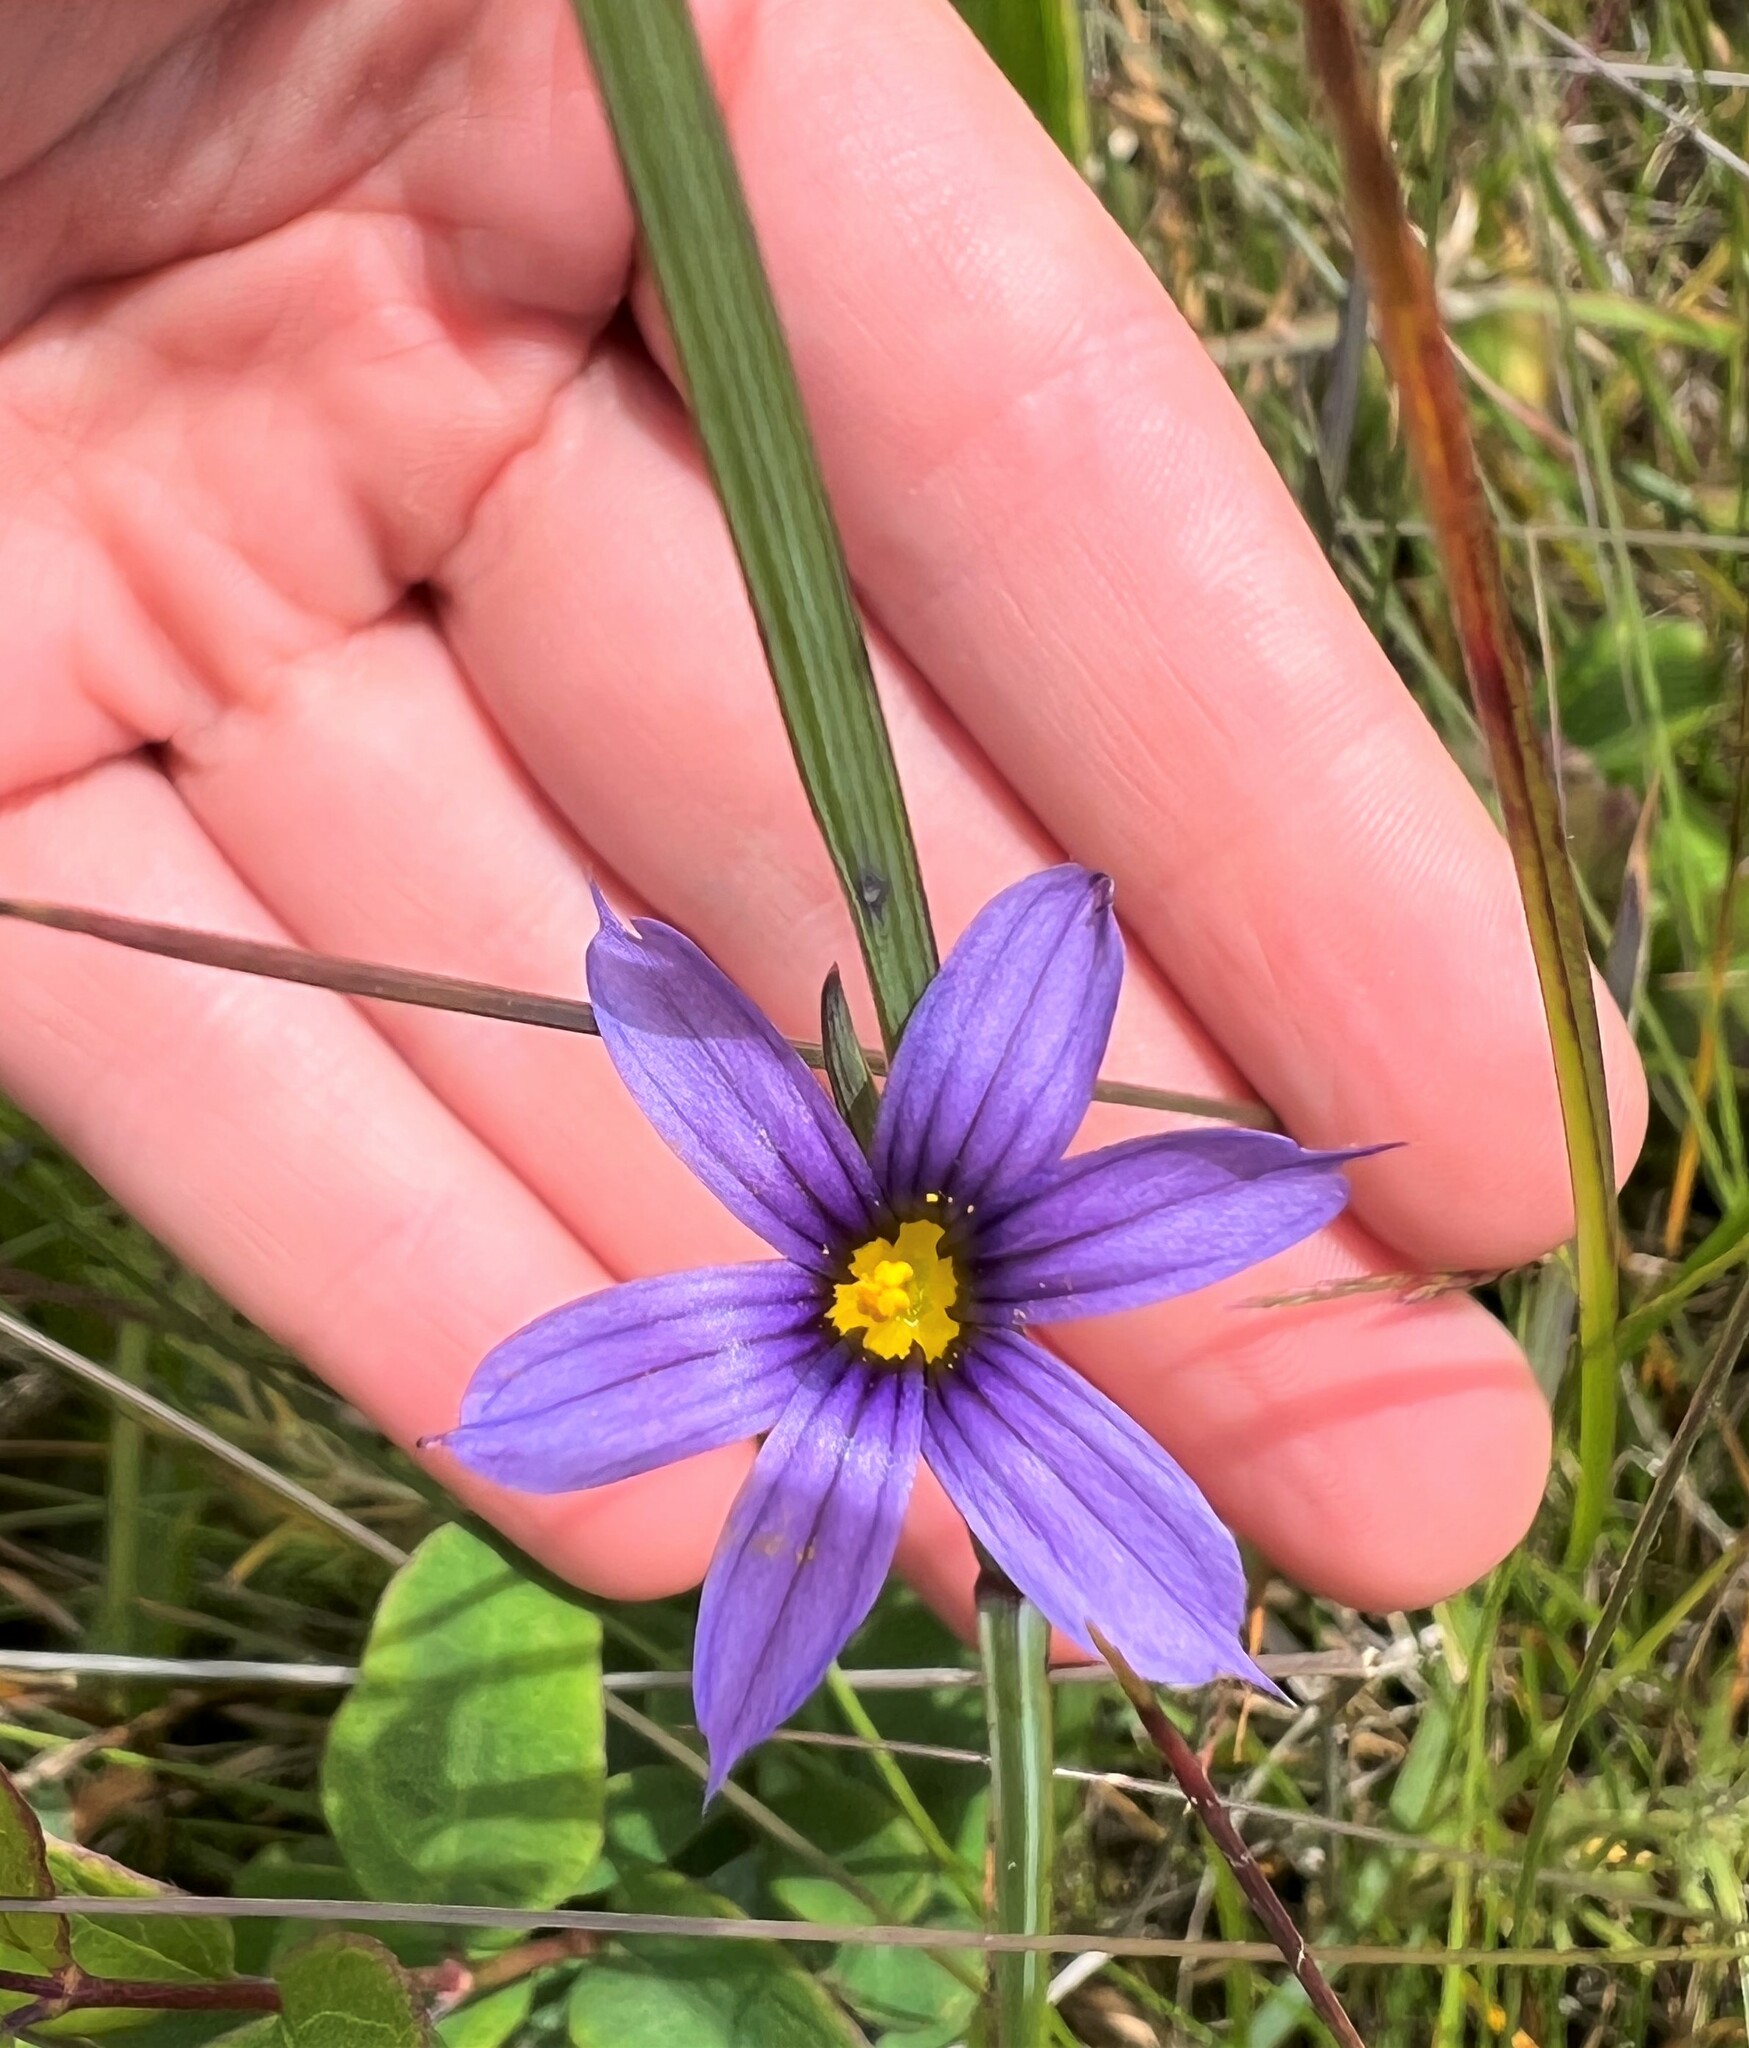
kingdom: Plantae
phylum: Tracheophyta
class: Liliopsida
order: Asparagales
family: Iridaceae
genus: Sisyrinchium
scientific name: Sisyrinchium idahoense
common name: Idaho blue-eyed-grass
